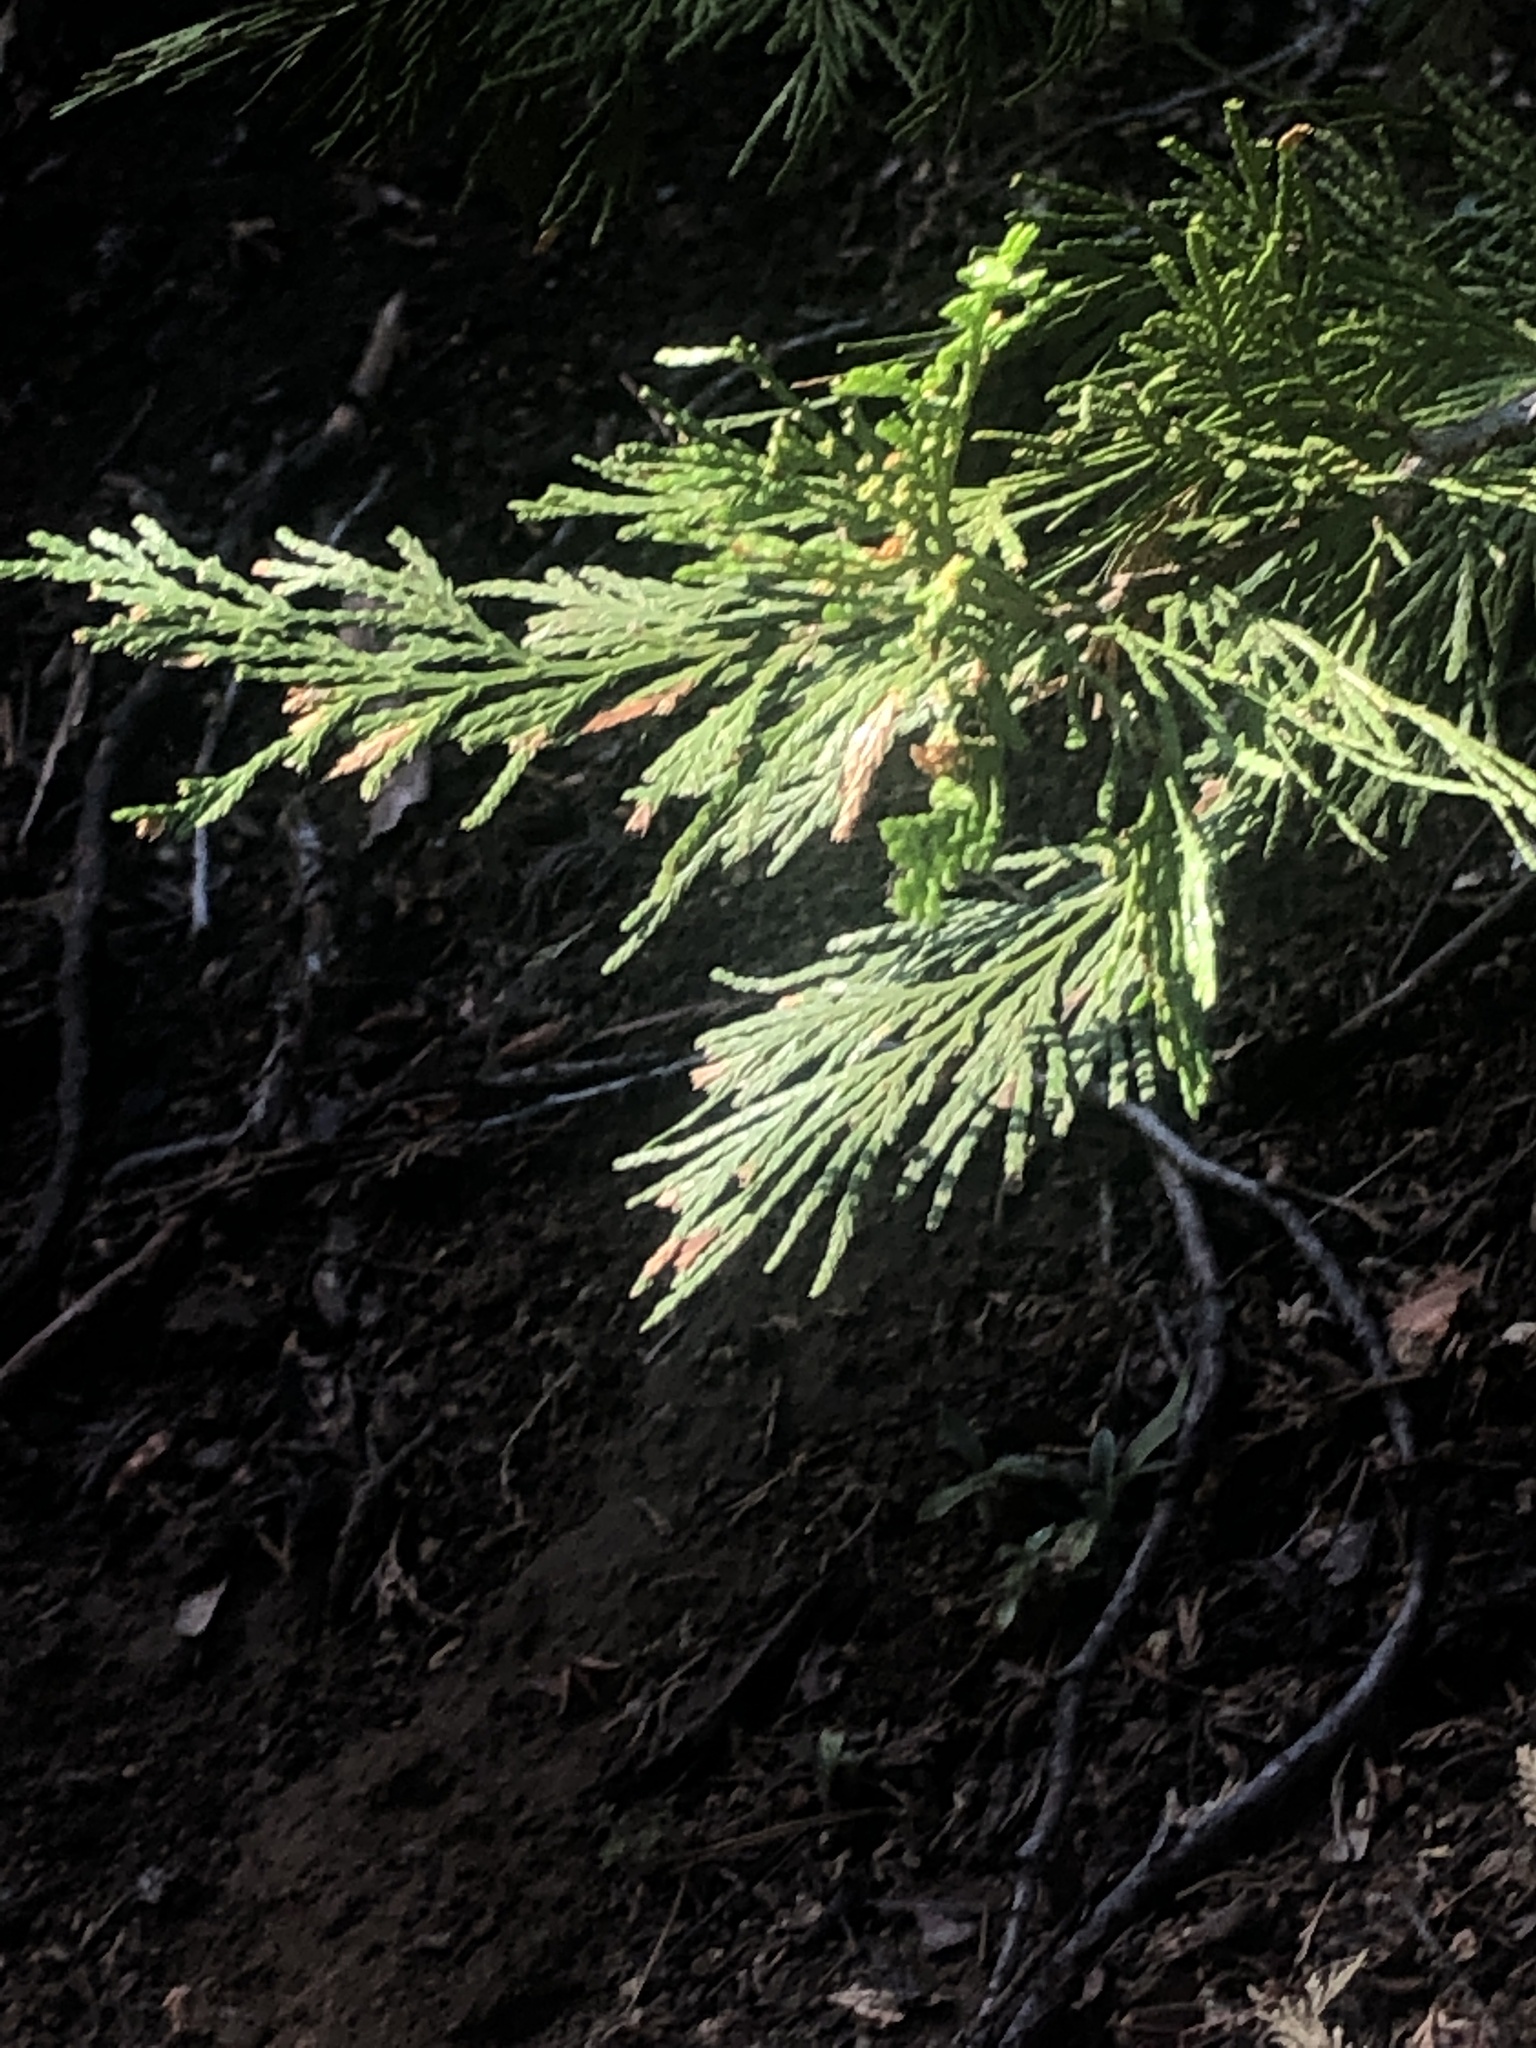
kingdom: Plantae
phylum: Tracheophyta
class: Pinopsida
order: Pinales
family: Cupressaceae
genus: Calocedrus
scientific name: Calocedrus decurrens
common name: Californian incense-cedar
